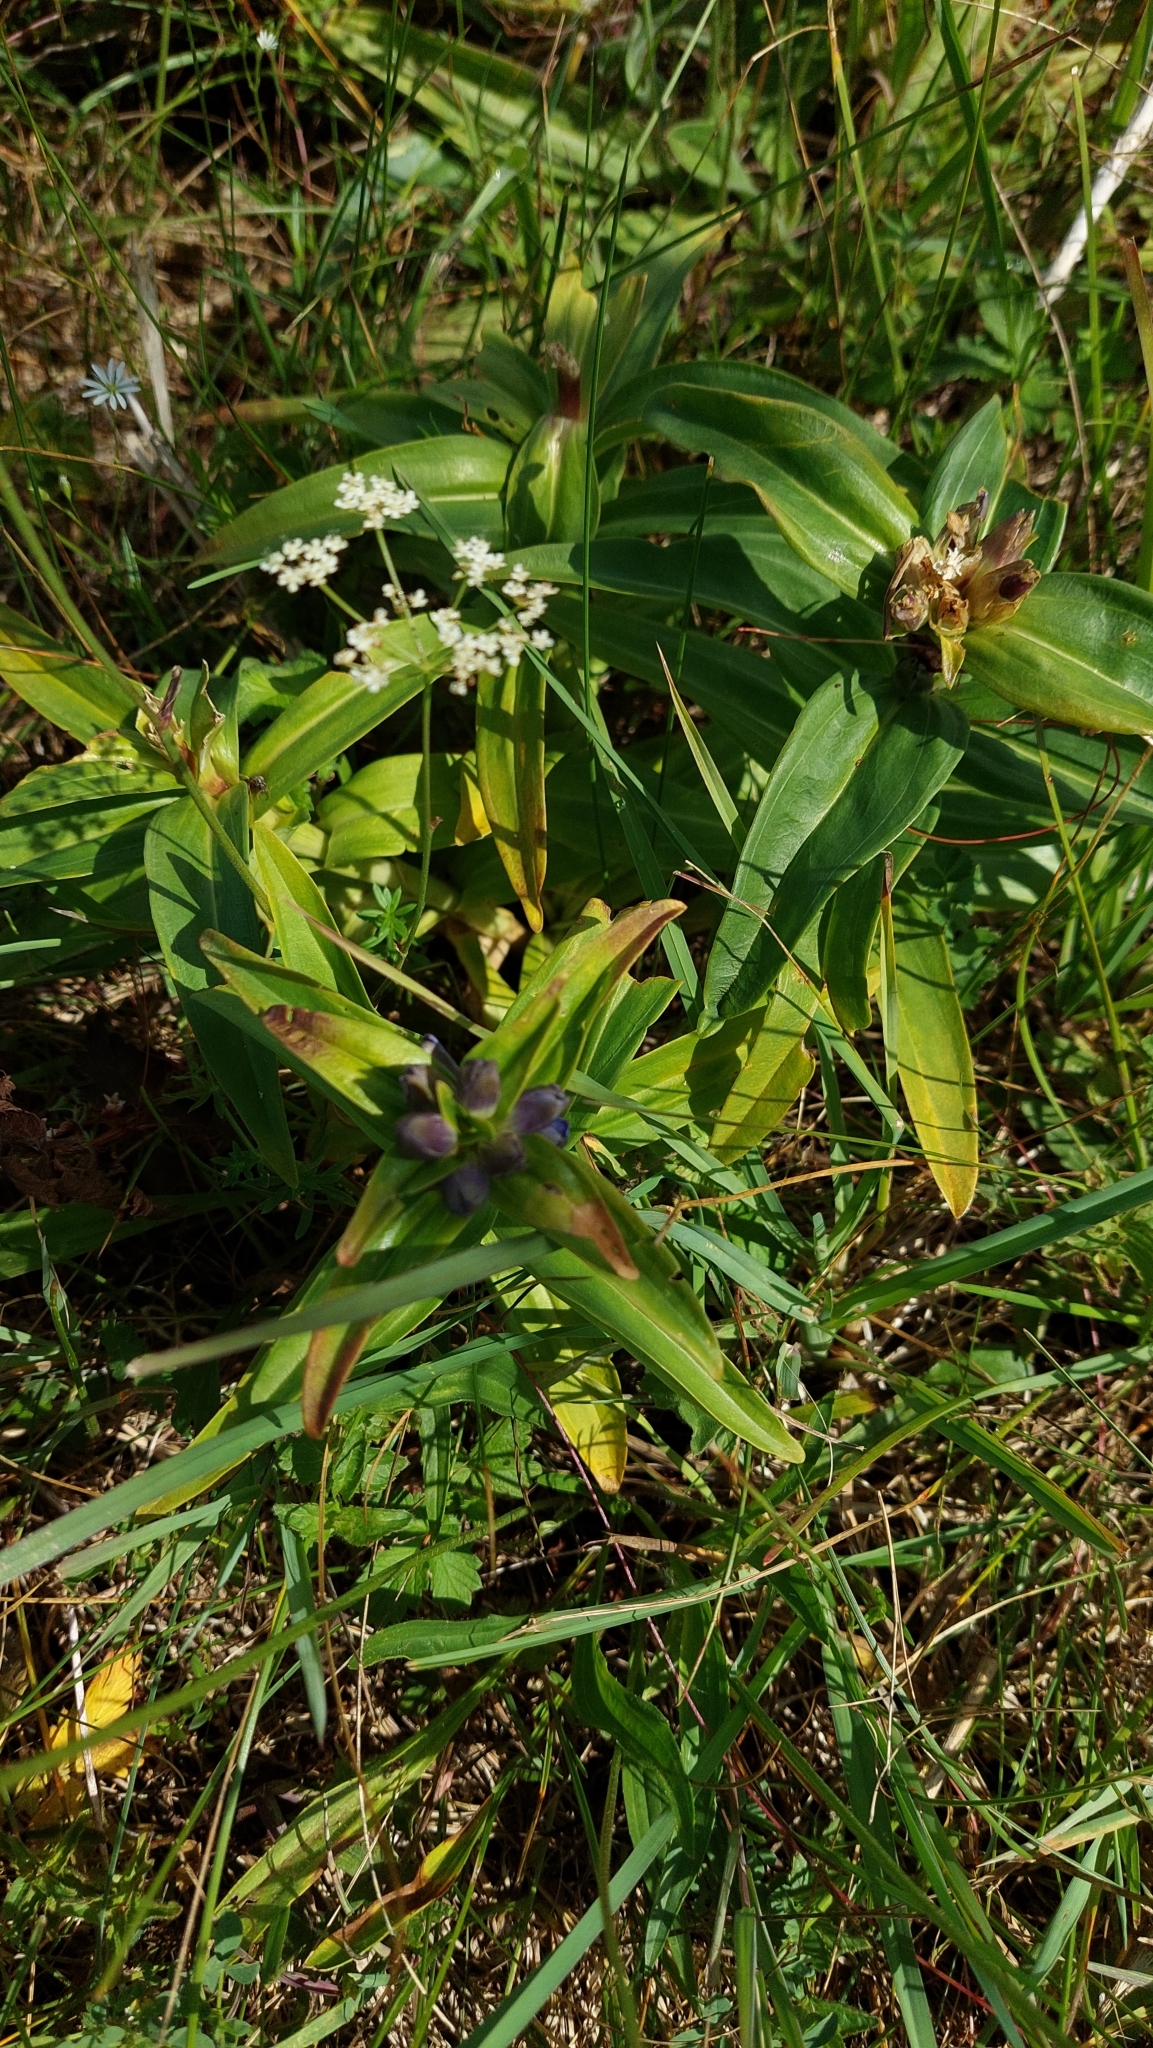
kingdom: Plantae
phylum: Tracheophyta
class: Magnoliopsida
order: Gentianales
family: Gentianaceae
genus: Gentiana
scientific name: Gentiana cruciata
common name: Cross gentian
